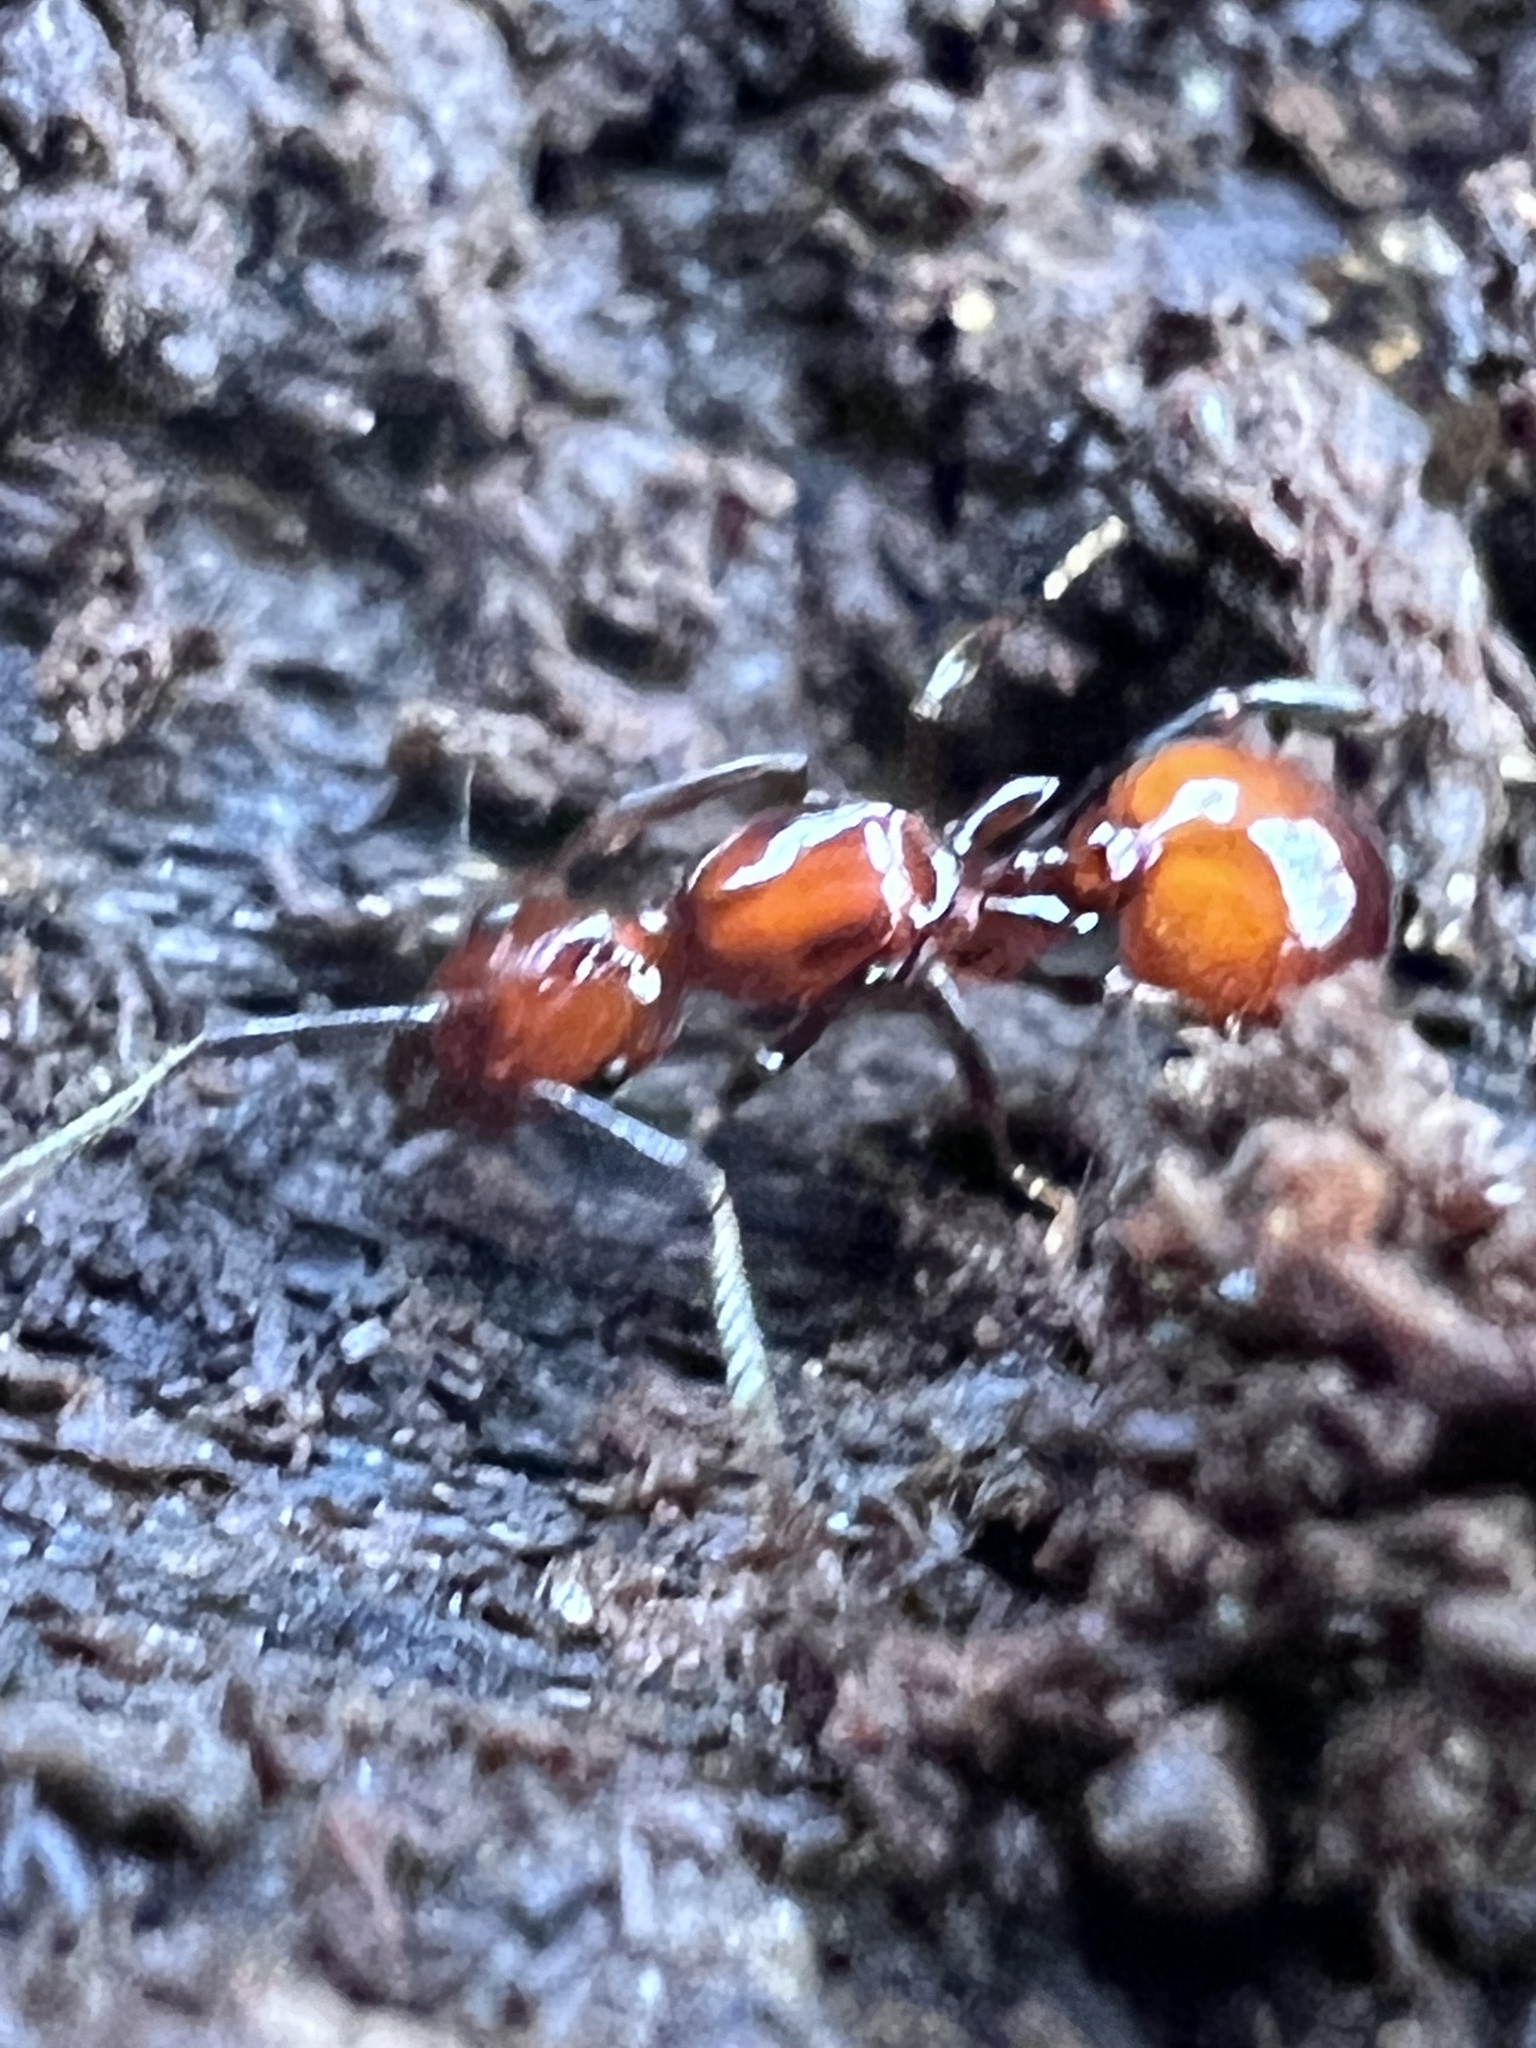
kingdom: Animalia
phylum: Arthropoda
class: Insecta
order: Hymenoptera
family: Formicidae
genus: Aphaenogaster
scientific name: Aphaenogaster tennesseensis
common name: Tennessee thread-waisted ant
